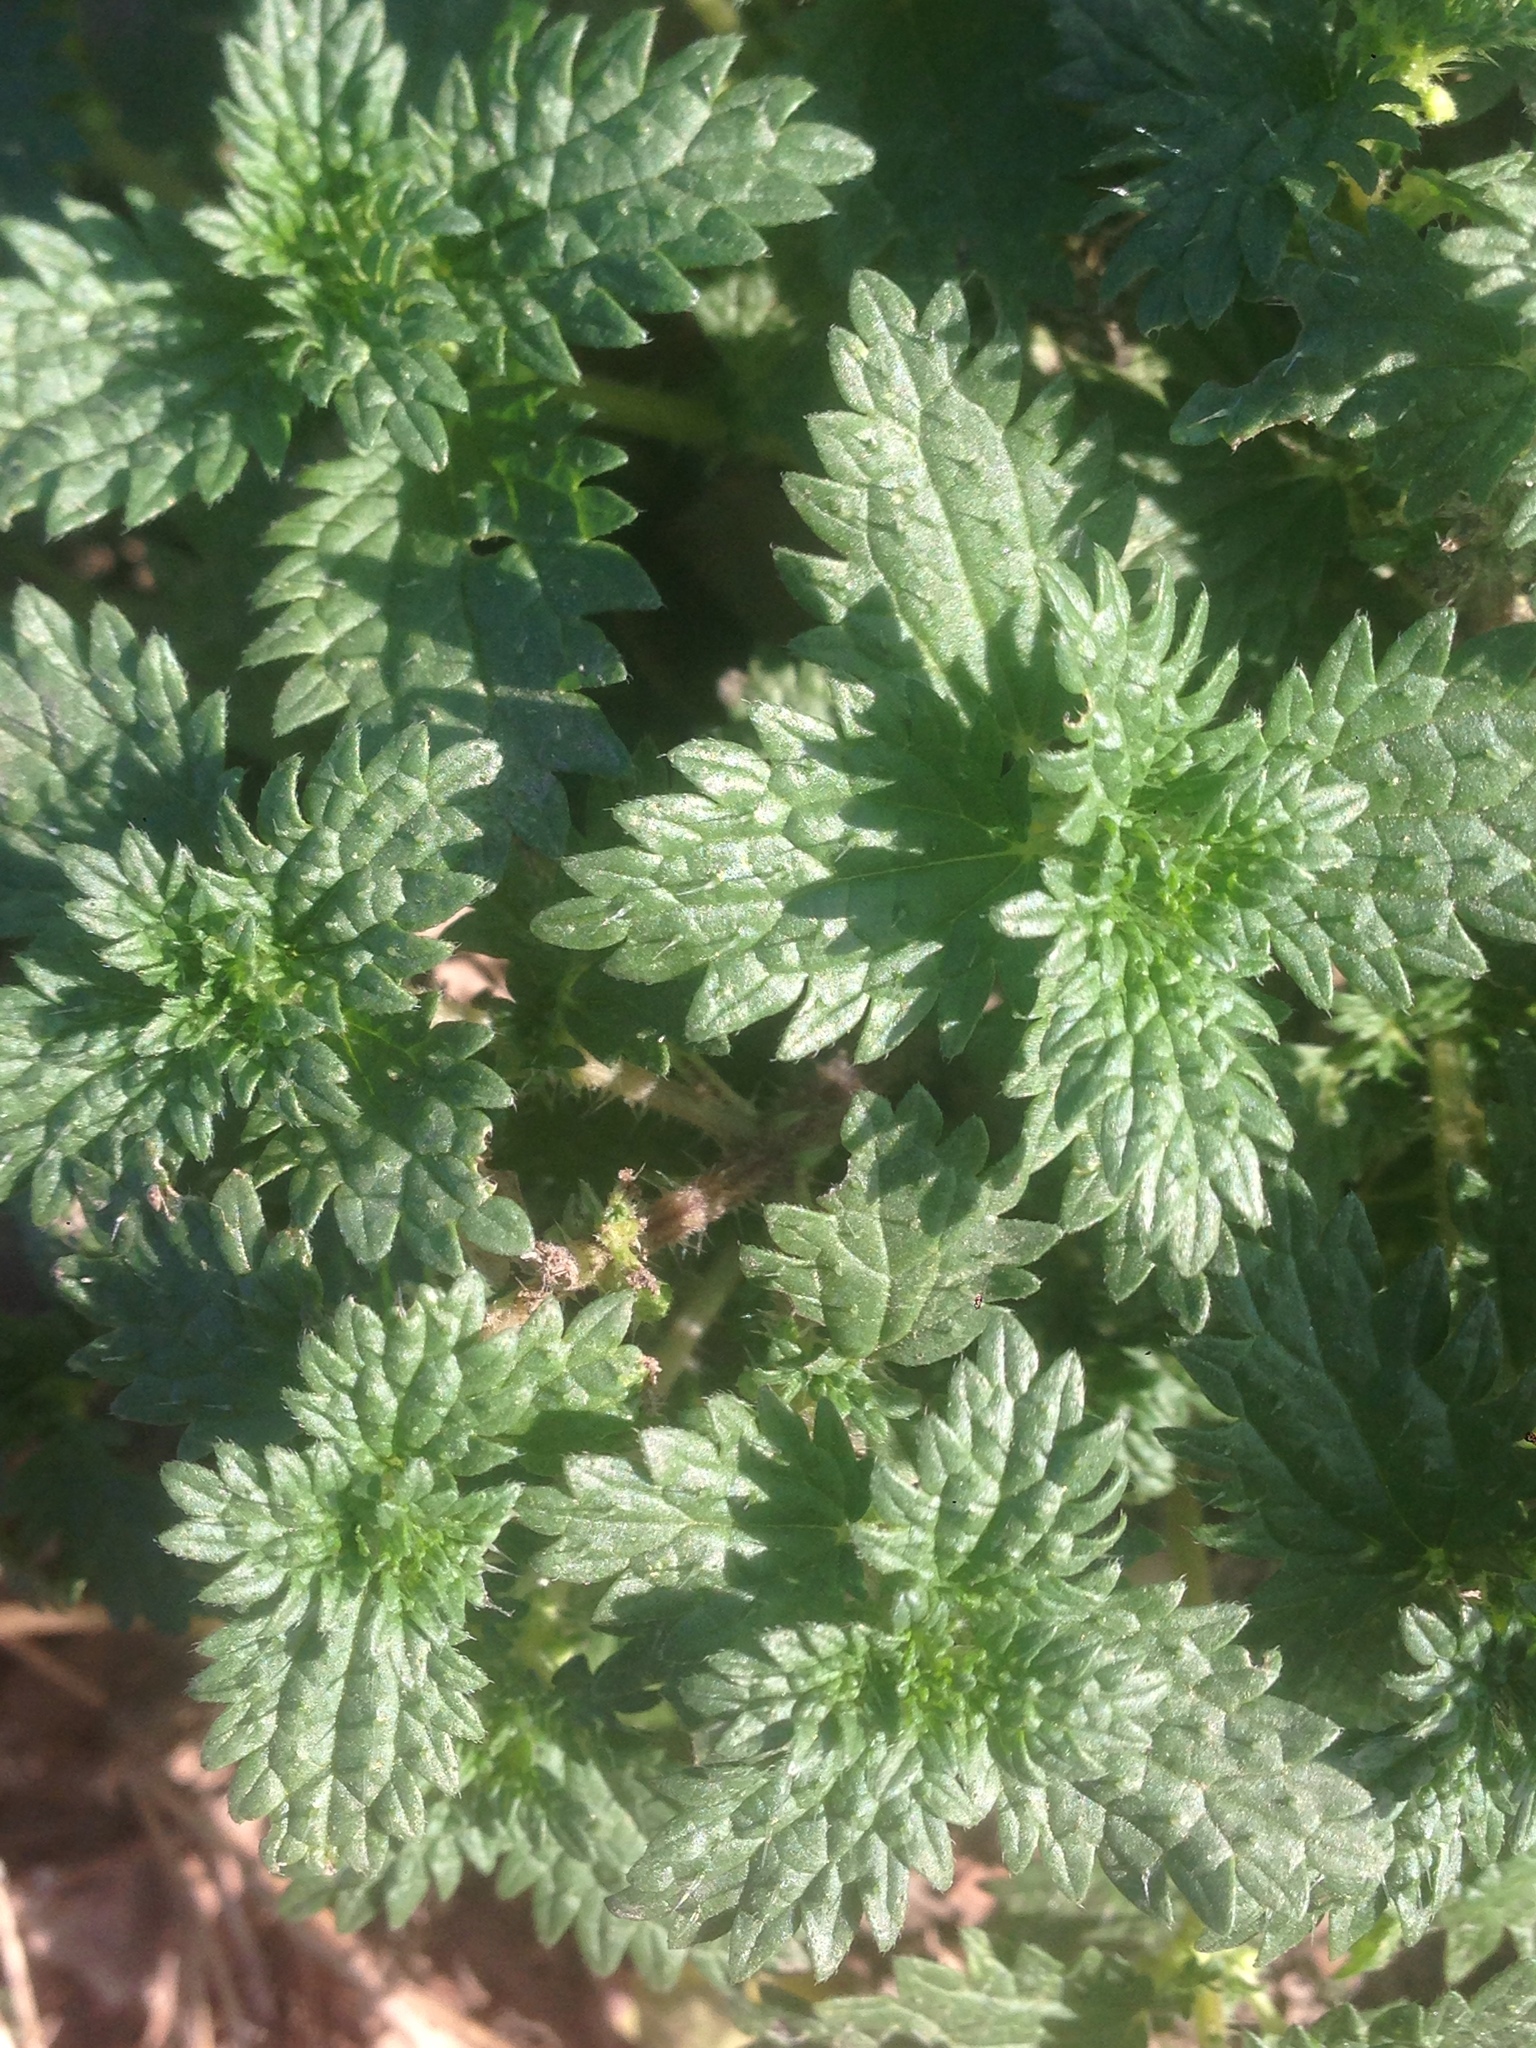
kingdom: Plantae
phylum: Tracheophyta
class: Magnoliopsida
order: Rosales
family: Urticaceae
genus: Urtica
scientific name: Urtica urens
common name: Dwarf nettle
